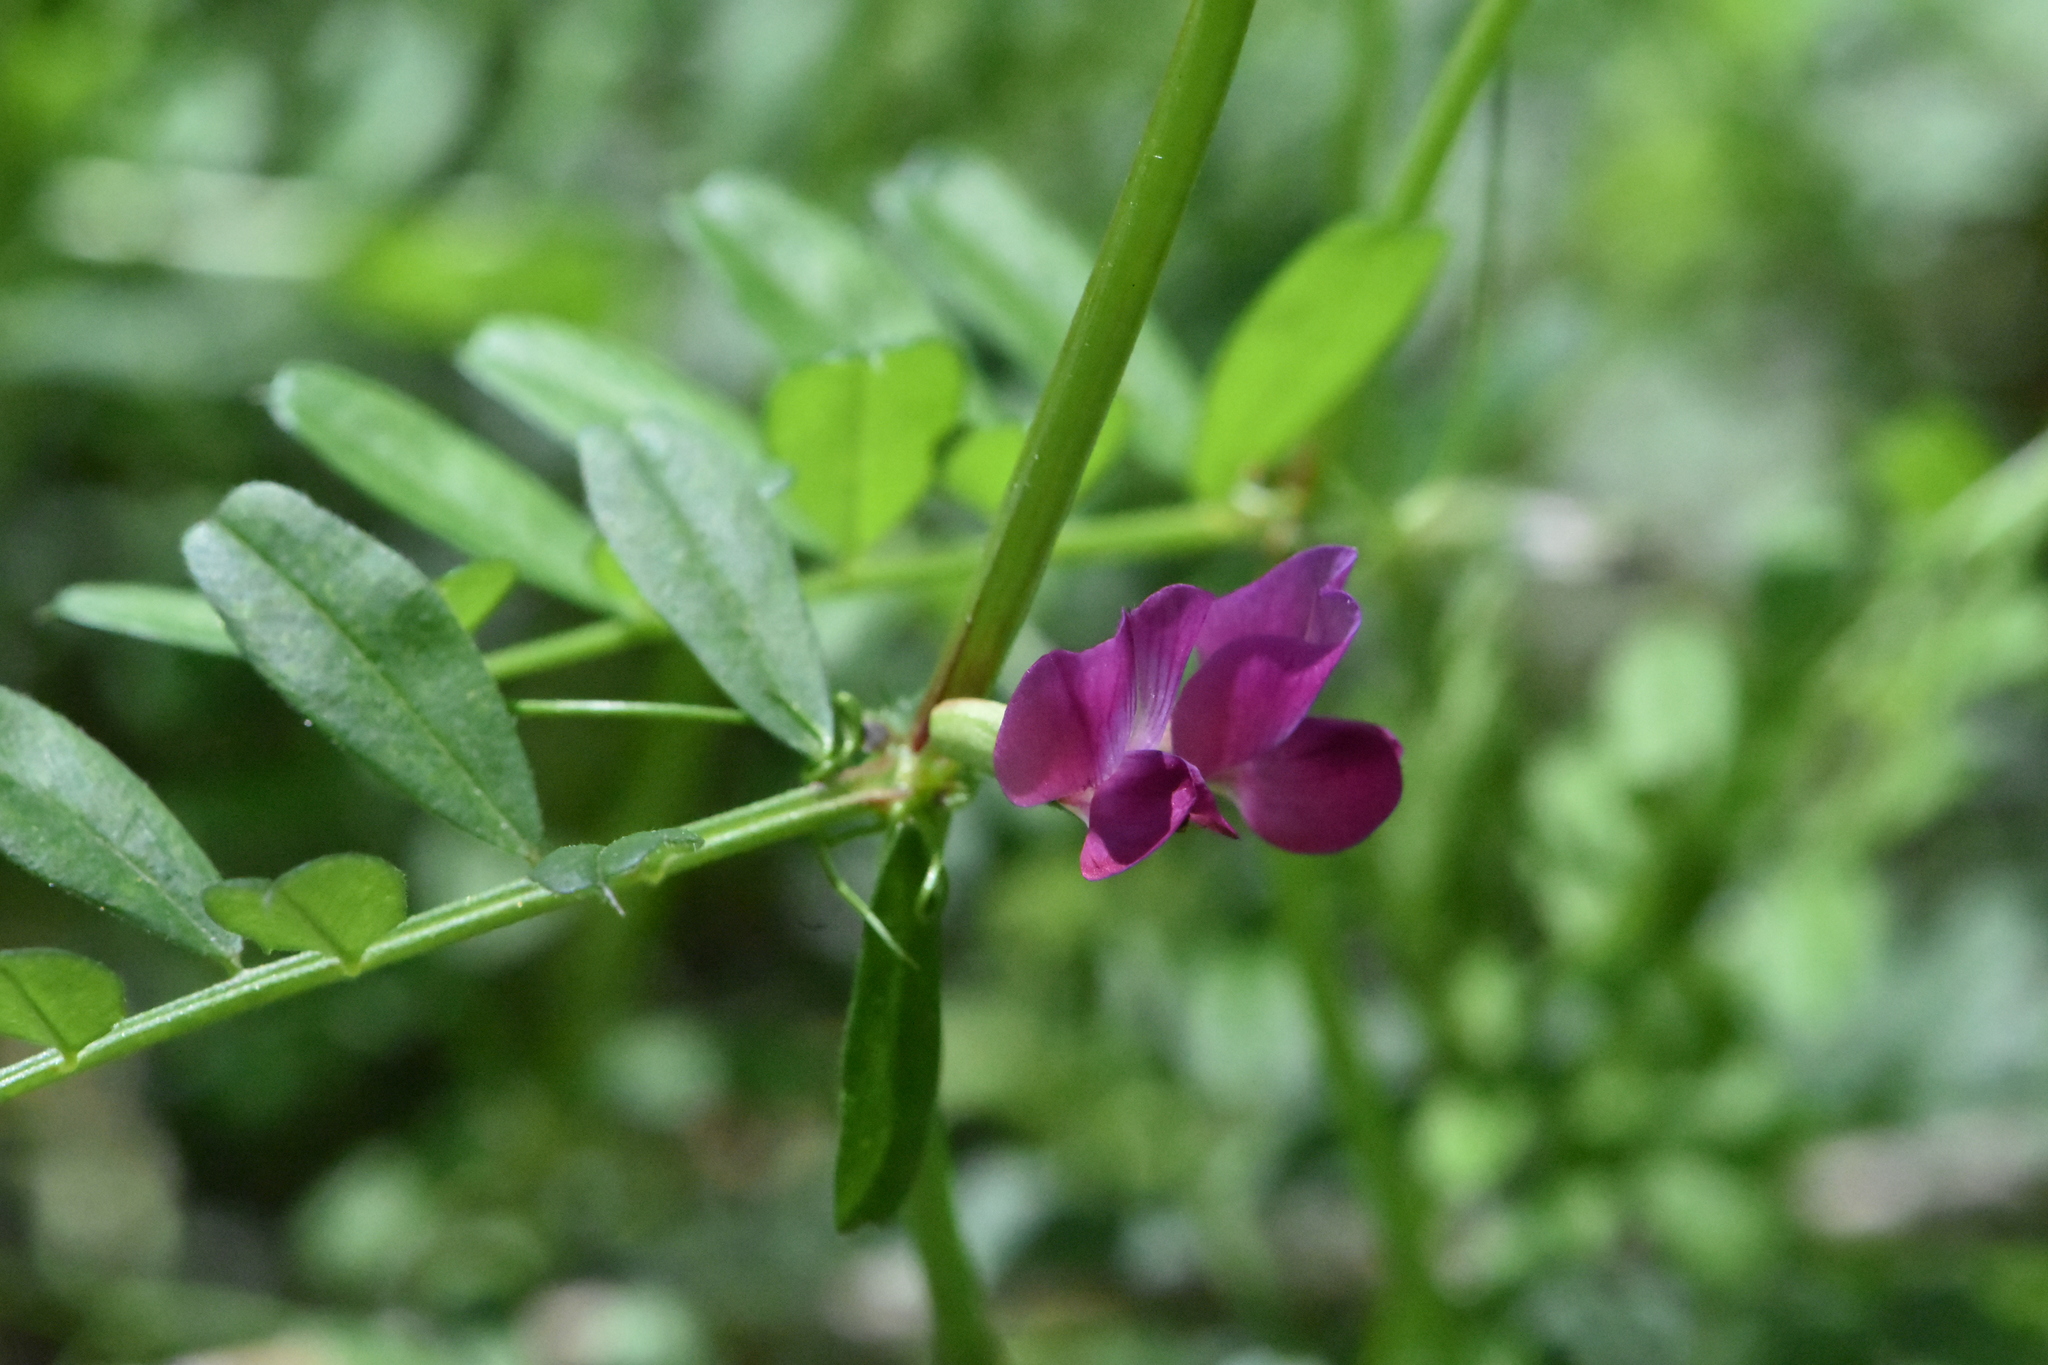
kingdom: Plantae
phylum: Tracheophyta
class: Magnoliopsida
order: Fabales
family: Fabaceae
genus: Vicia
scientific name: Vicia sativa
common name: Garden vetch
